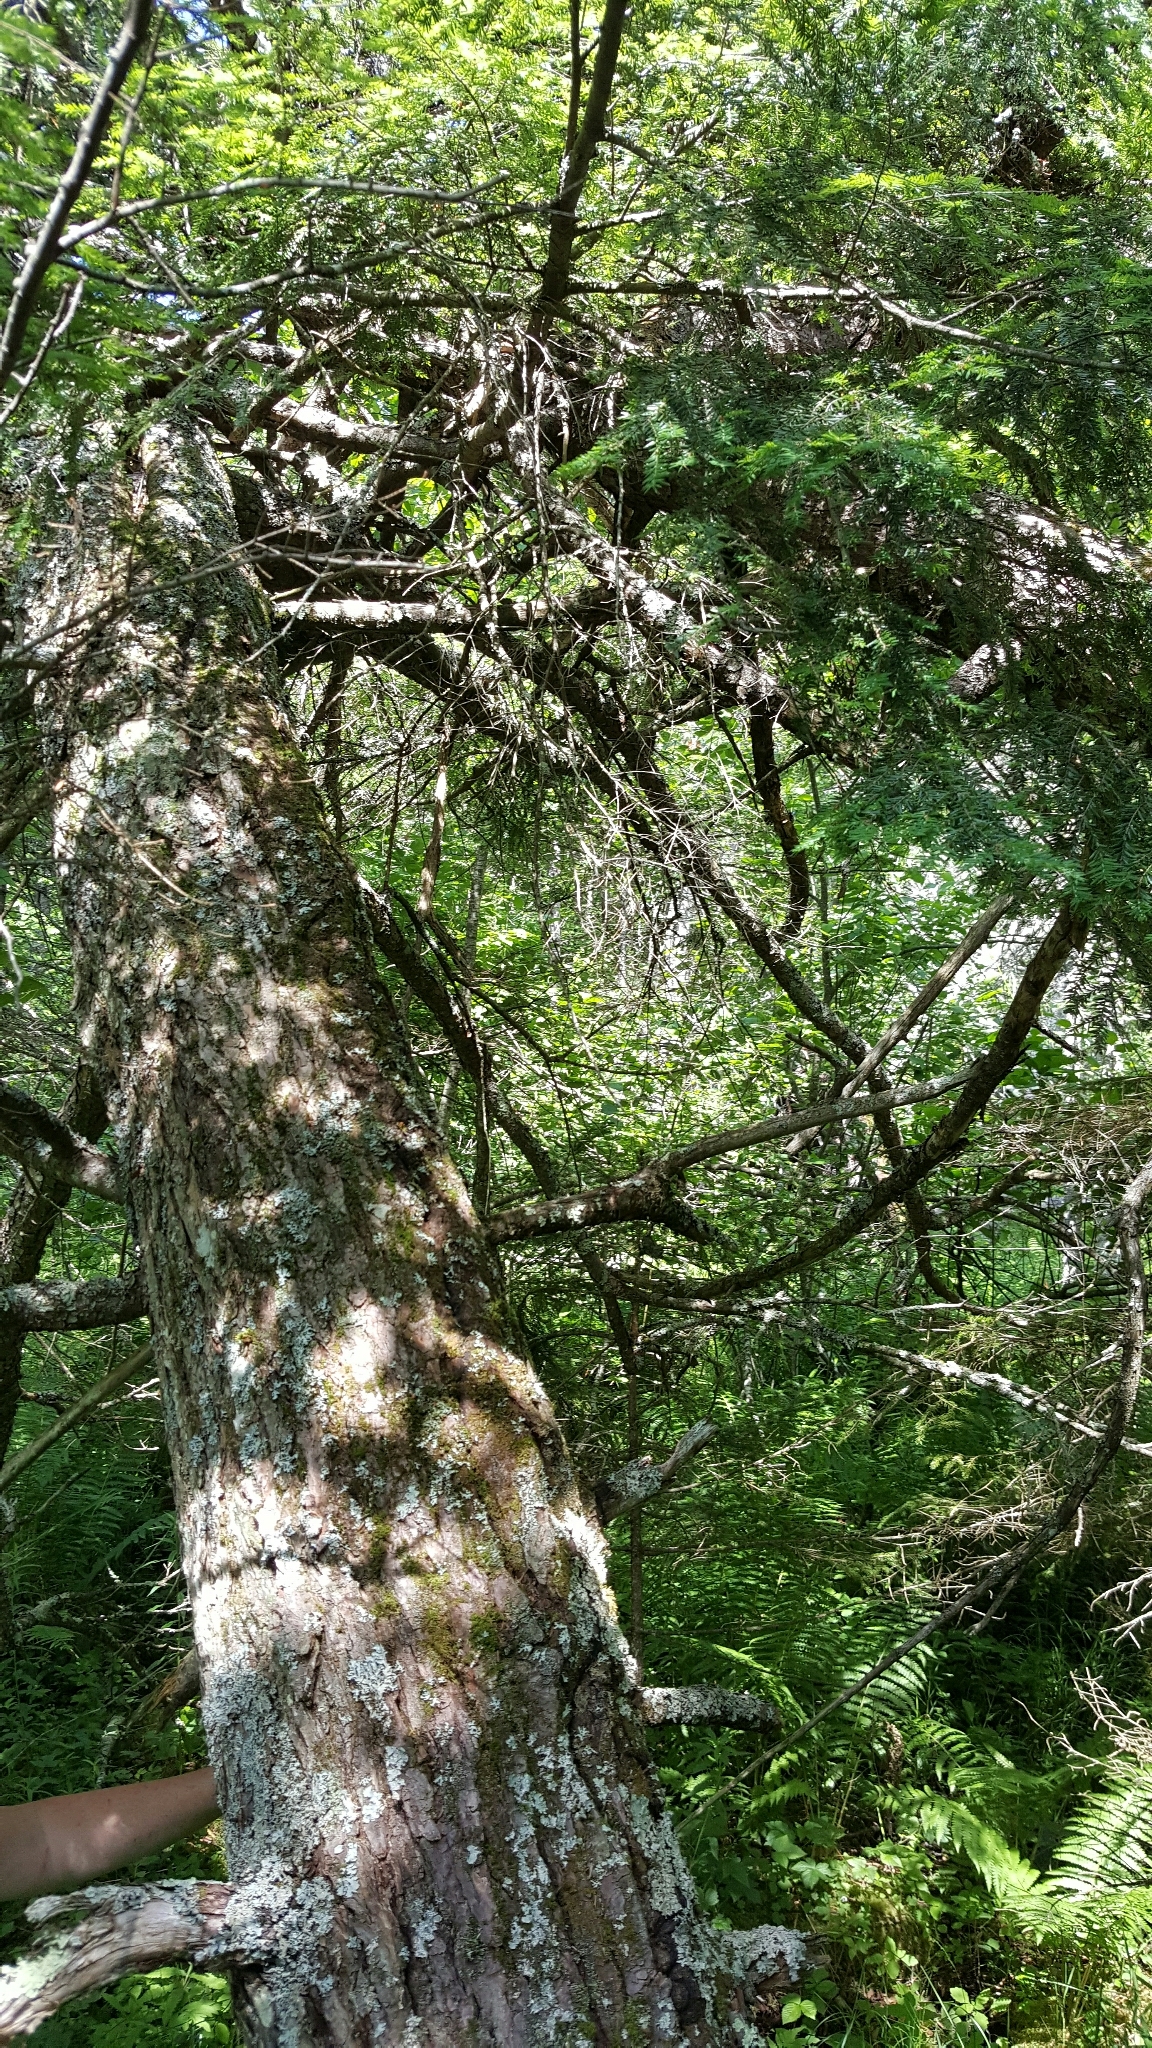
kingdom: Plantae
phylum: Tracheophyta
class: Pinopsida
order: Pinales
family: Pinaceae
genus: Tsuga
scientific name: Tsuga canadensis
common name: Eastern hemlock
